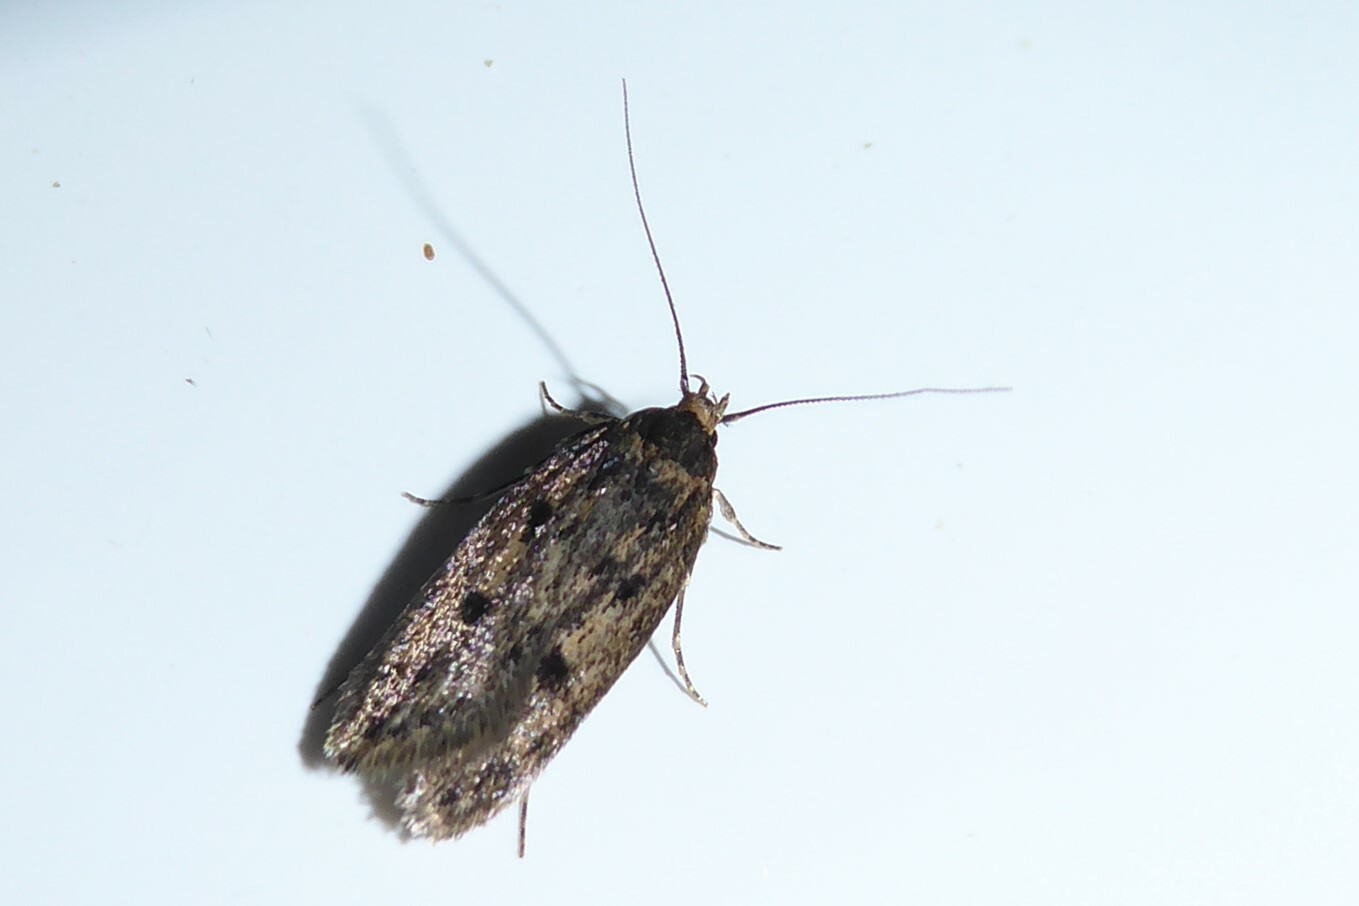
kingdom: Animalia
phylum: Arthropoda
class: Insecta
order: Lepidoptera
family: Oecophoridae
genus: Hofmannophila
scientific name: Hofmannophila pseudospretella
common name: Brown house moth
